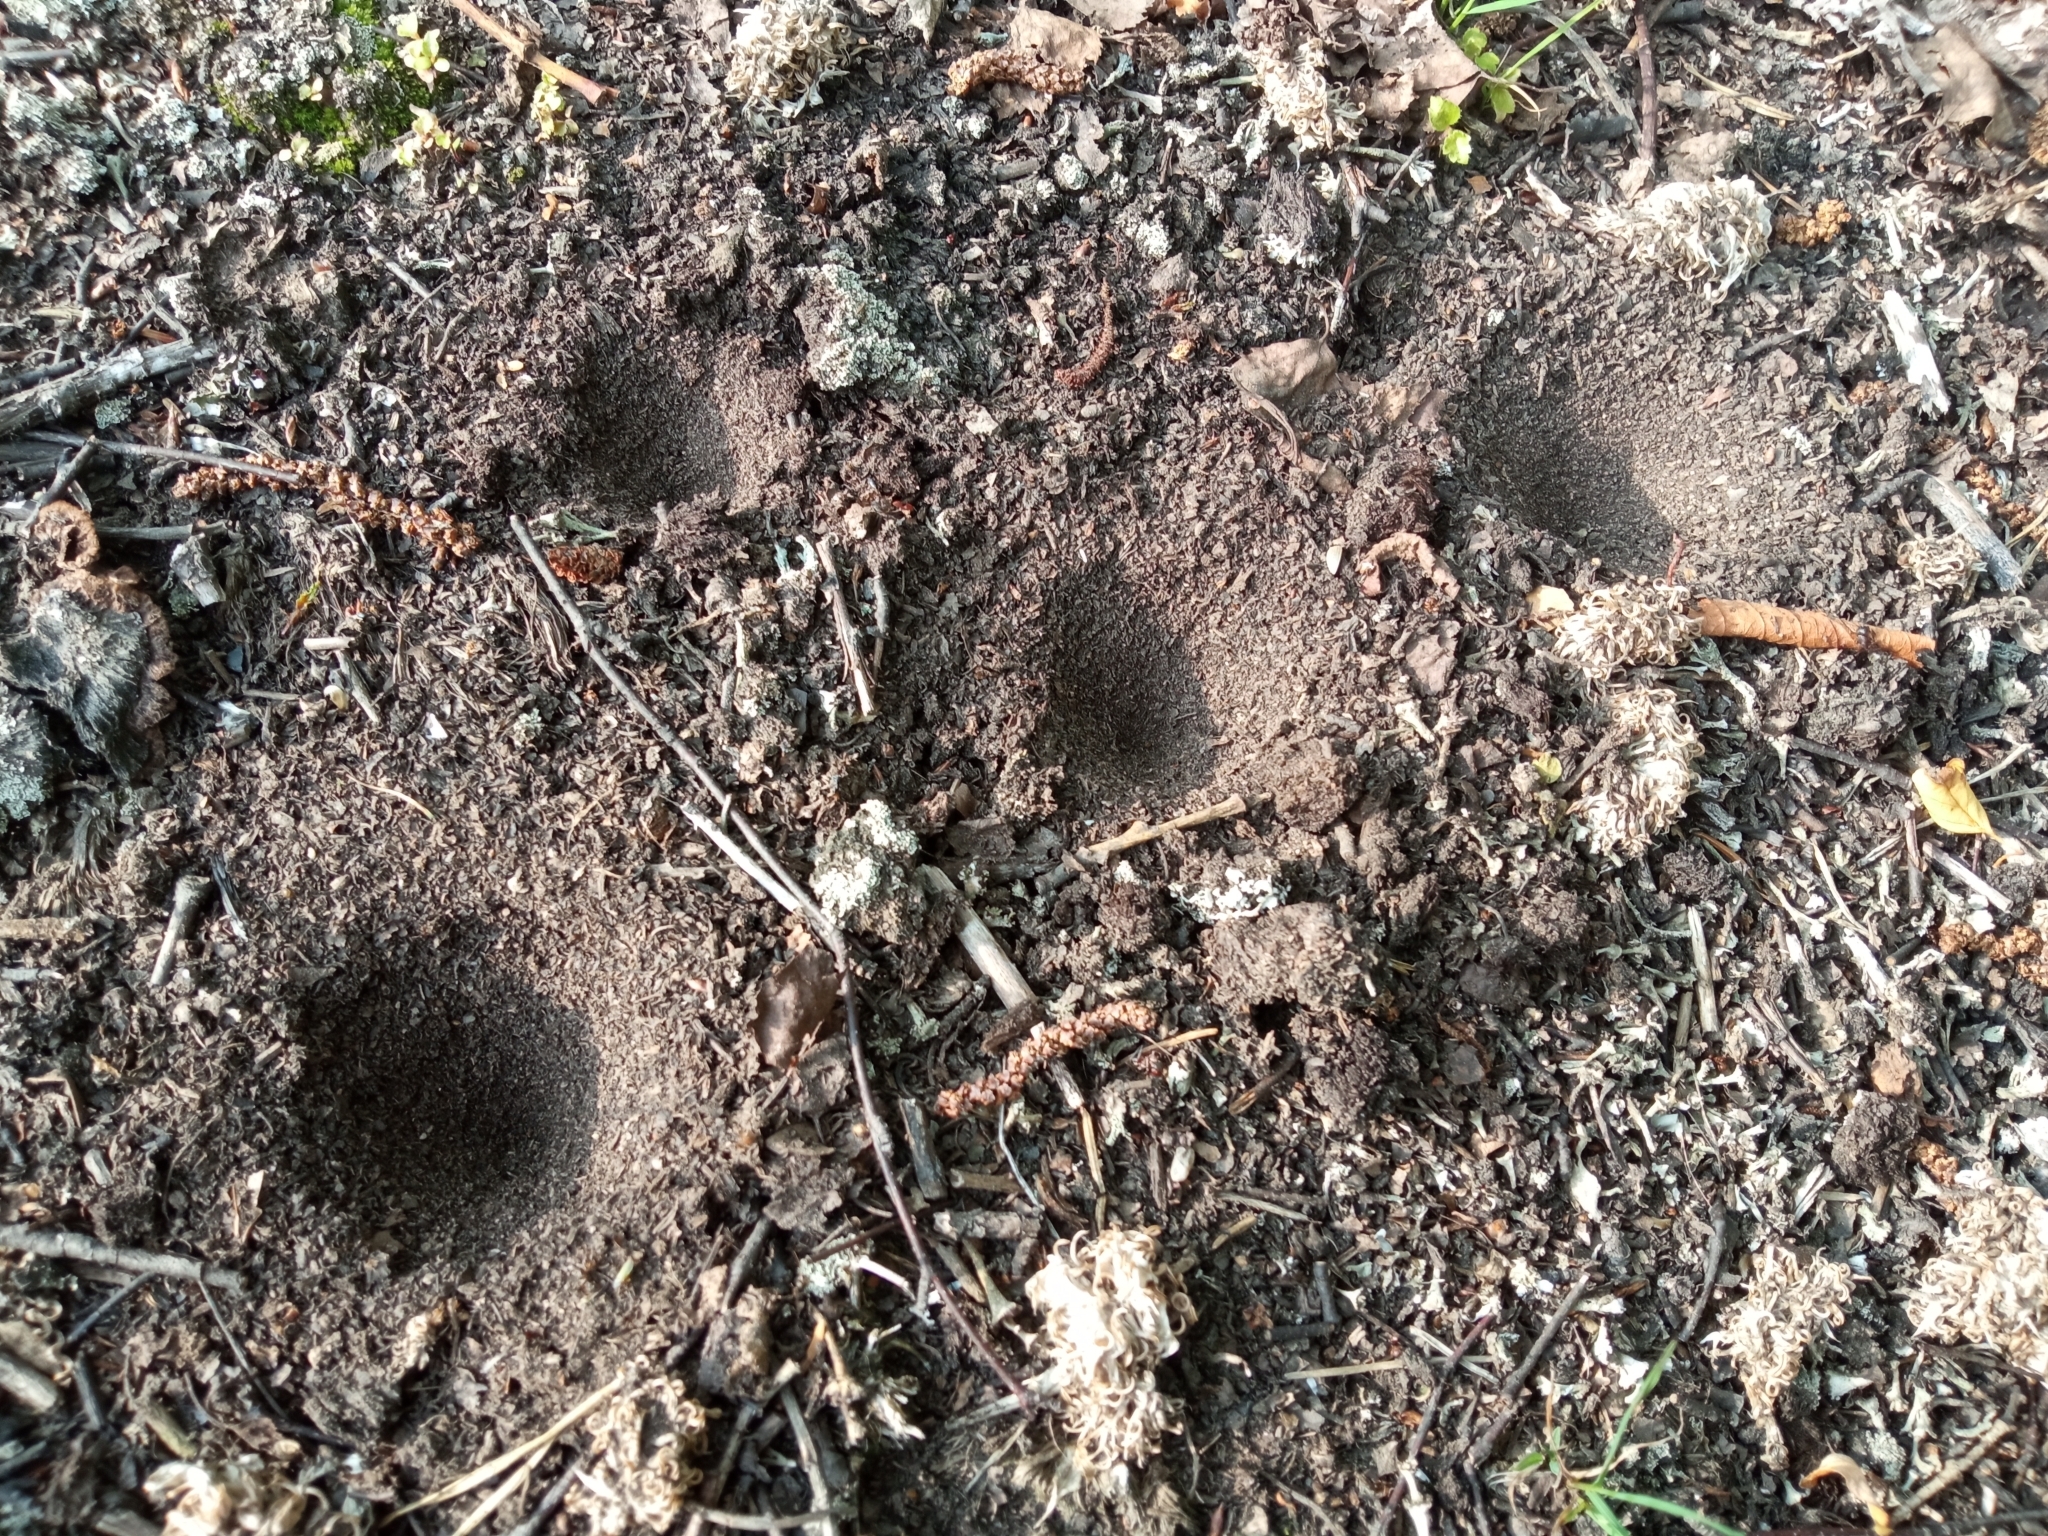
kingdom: Animalia
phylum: Arthropoda
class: Insecta
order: Neuroptera
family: Myrmeleontidae
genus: Myrmeleon
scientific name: Myrmeleon formicarius
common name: Ant-lion
